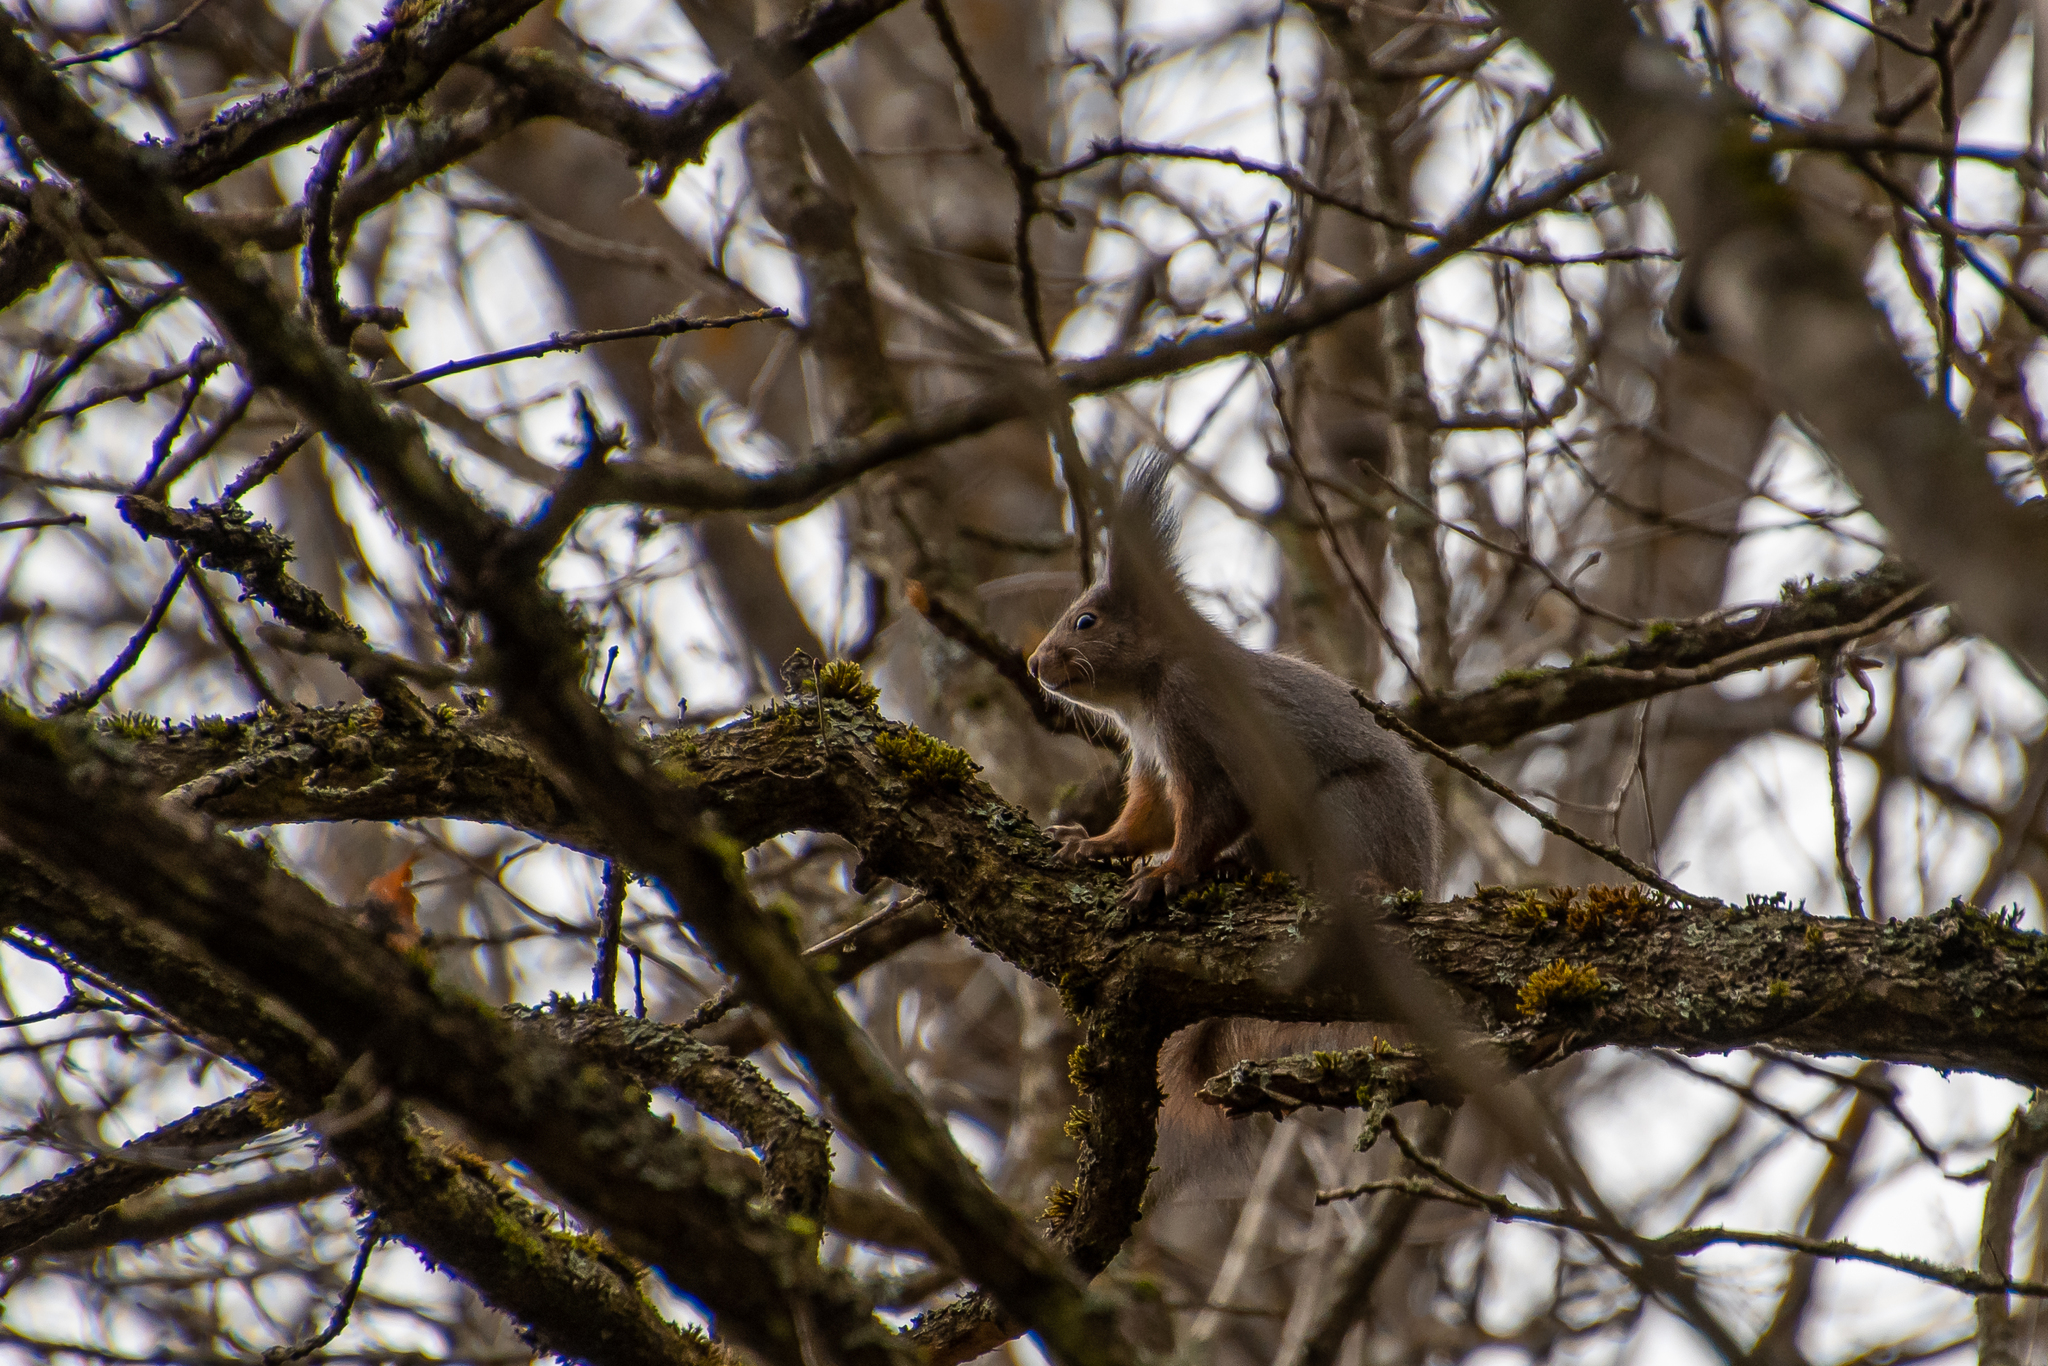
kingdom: Animalia
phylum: Chordata
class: Mammalia
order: Rodentia
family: Sciuridae
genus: Sciurus
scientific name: Sciurus vulgaris
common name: Eurasian red squirrel
